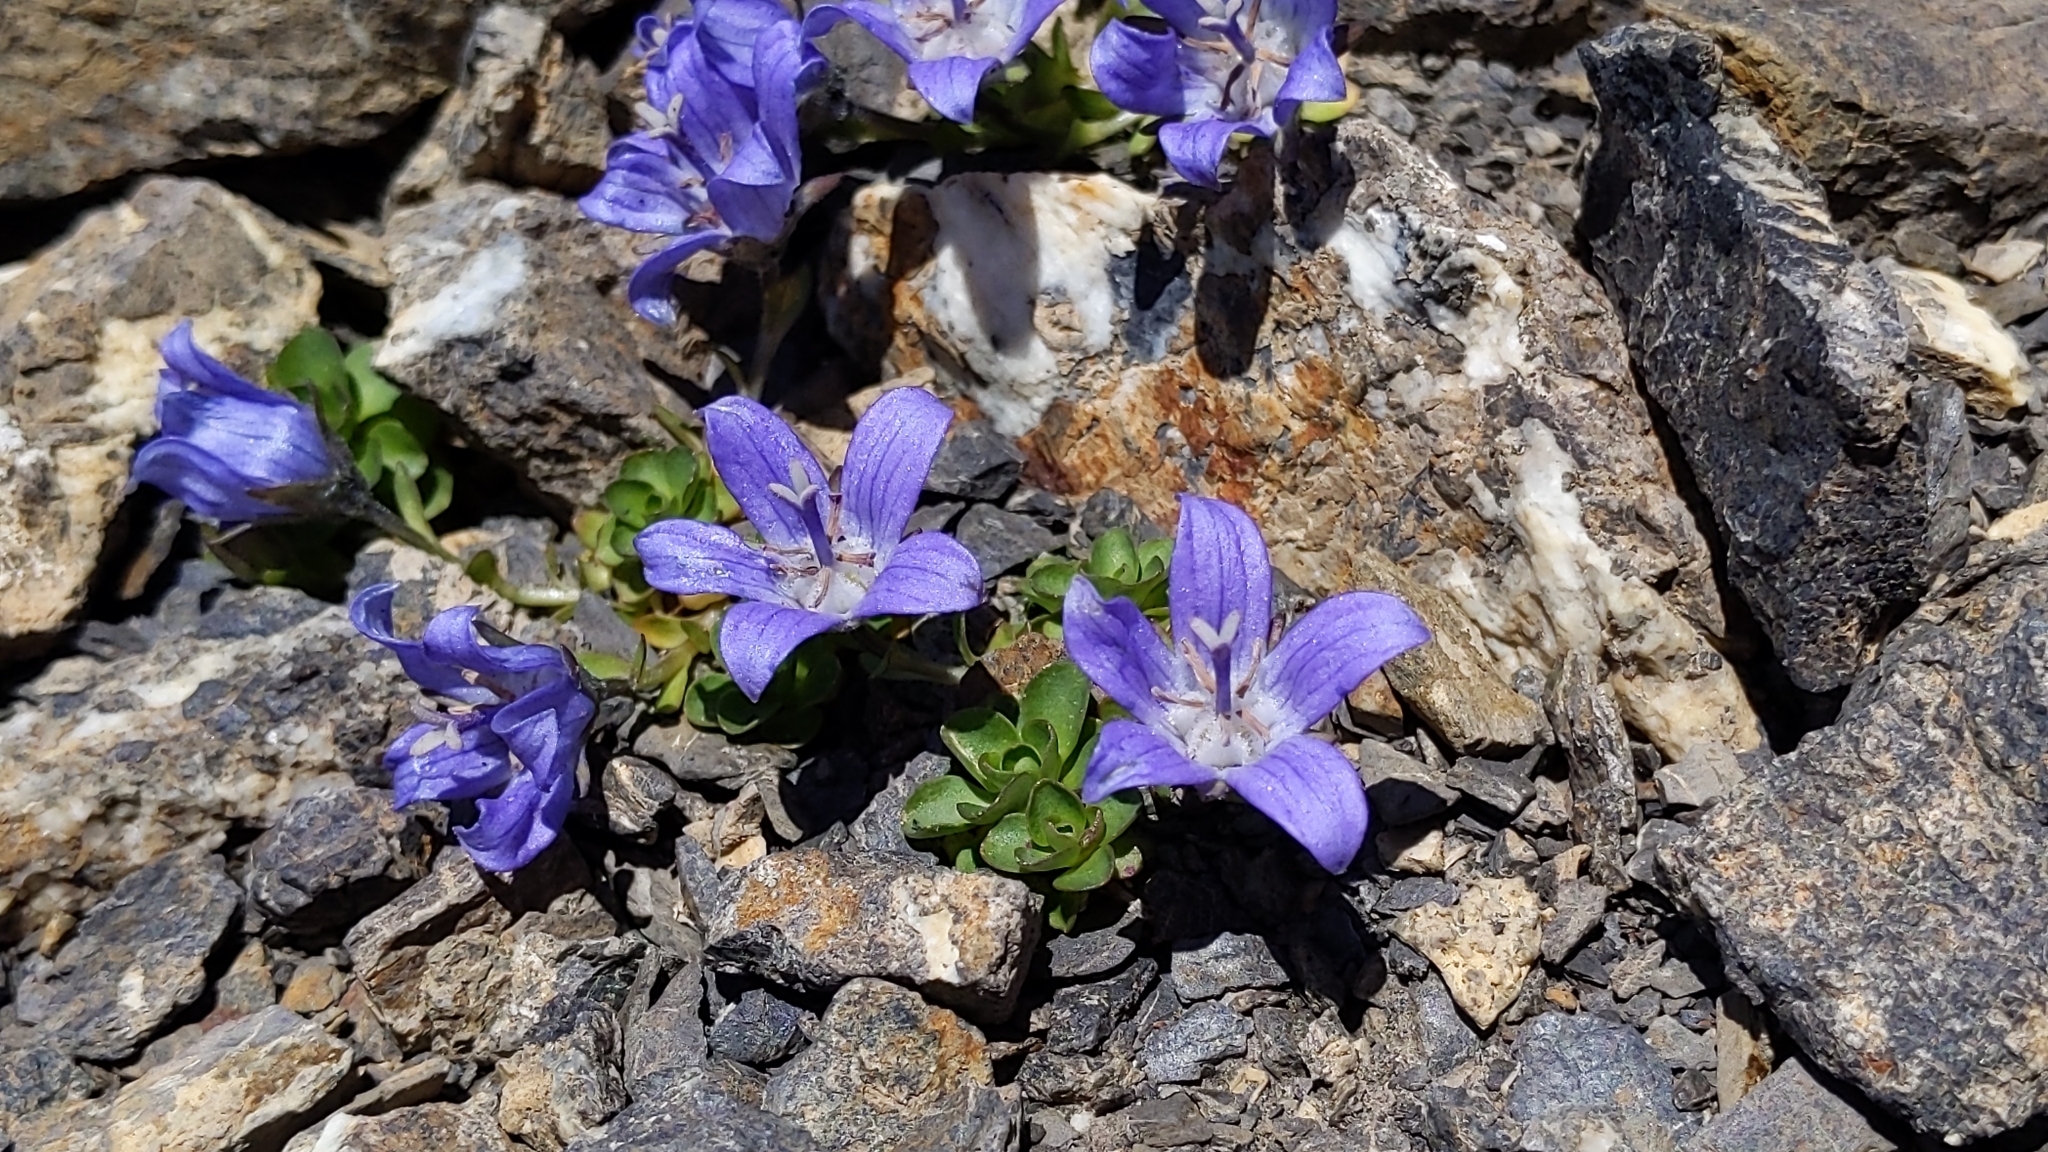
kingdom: Plantae
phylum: Tracheophyta
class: Magnoliopsida
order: Asterales
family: Campanulaceae
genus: Campanula
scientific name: Campanula cenisia
